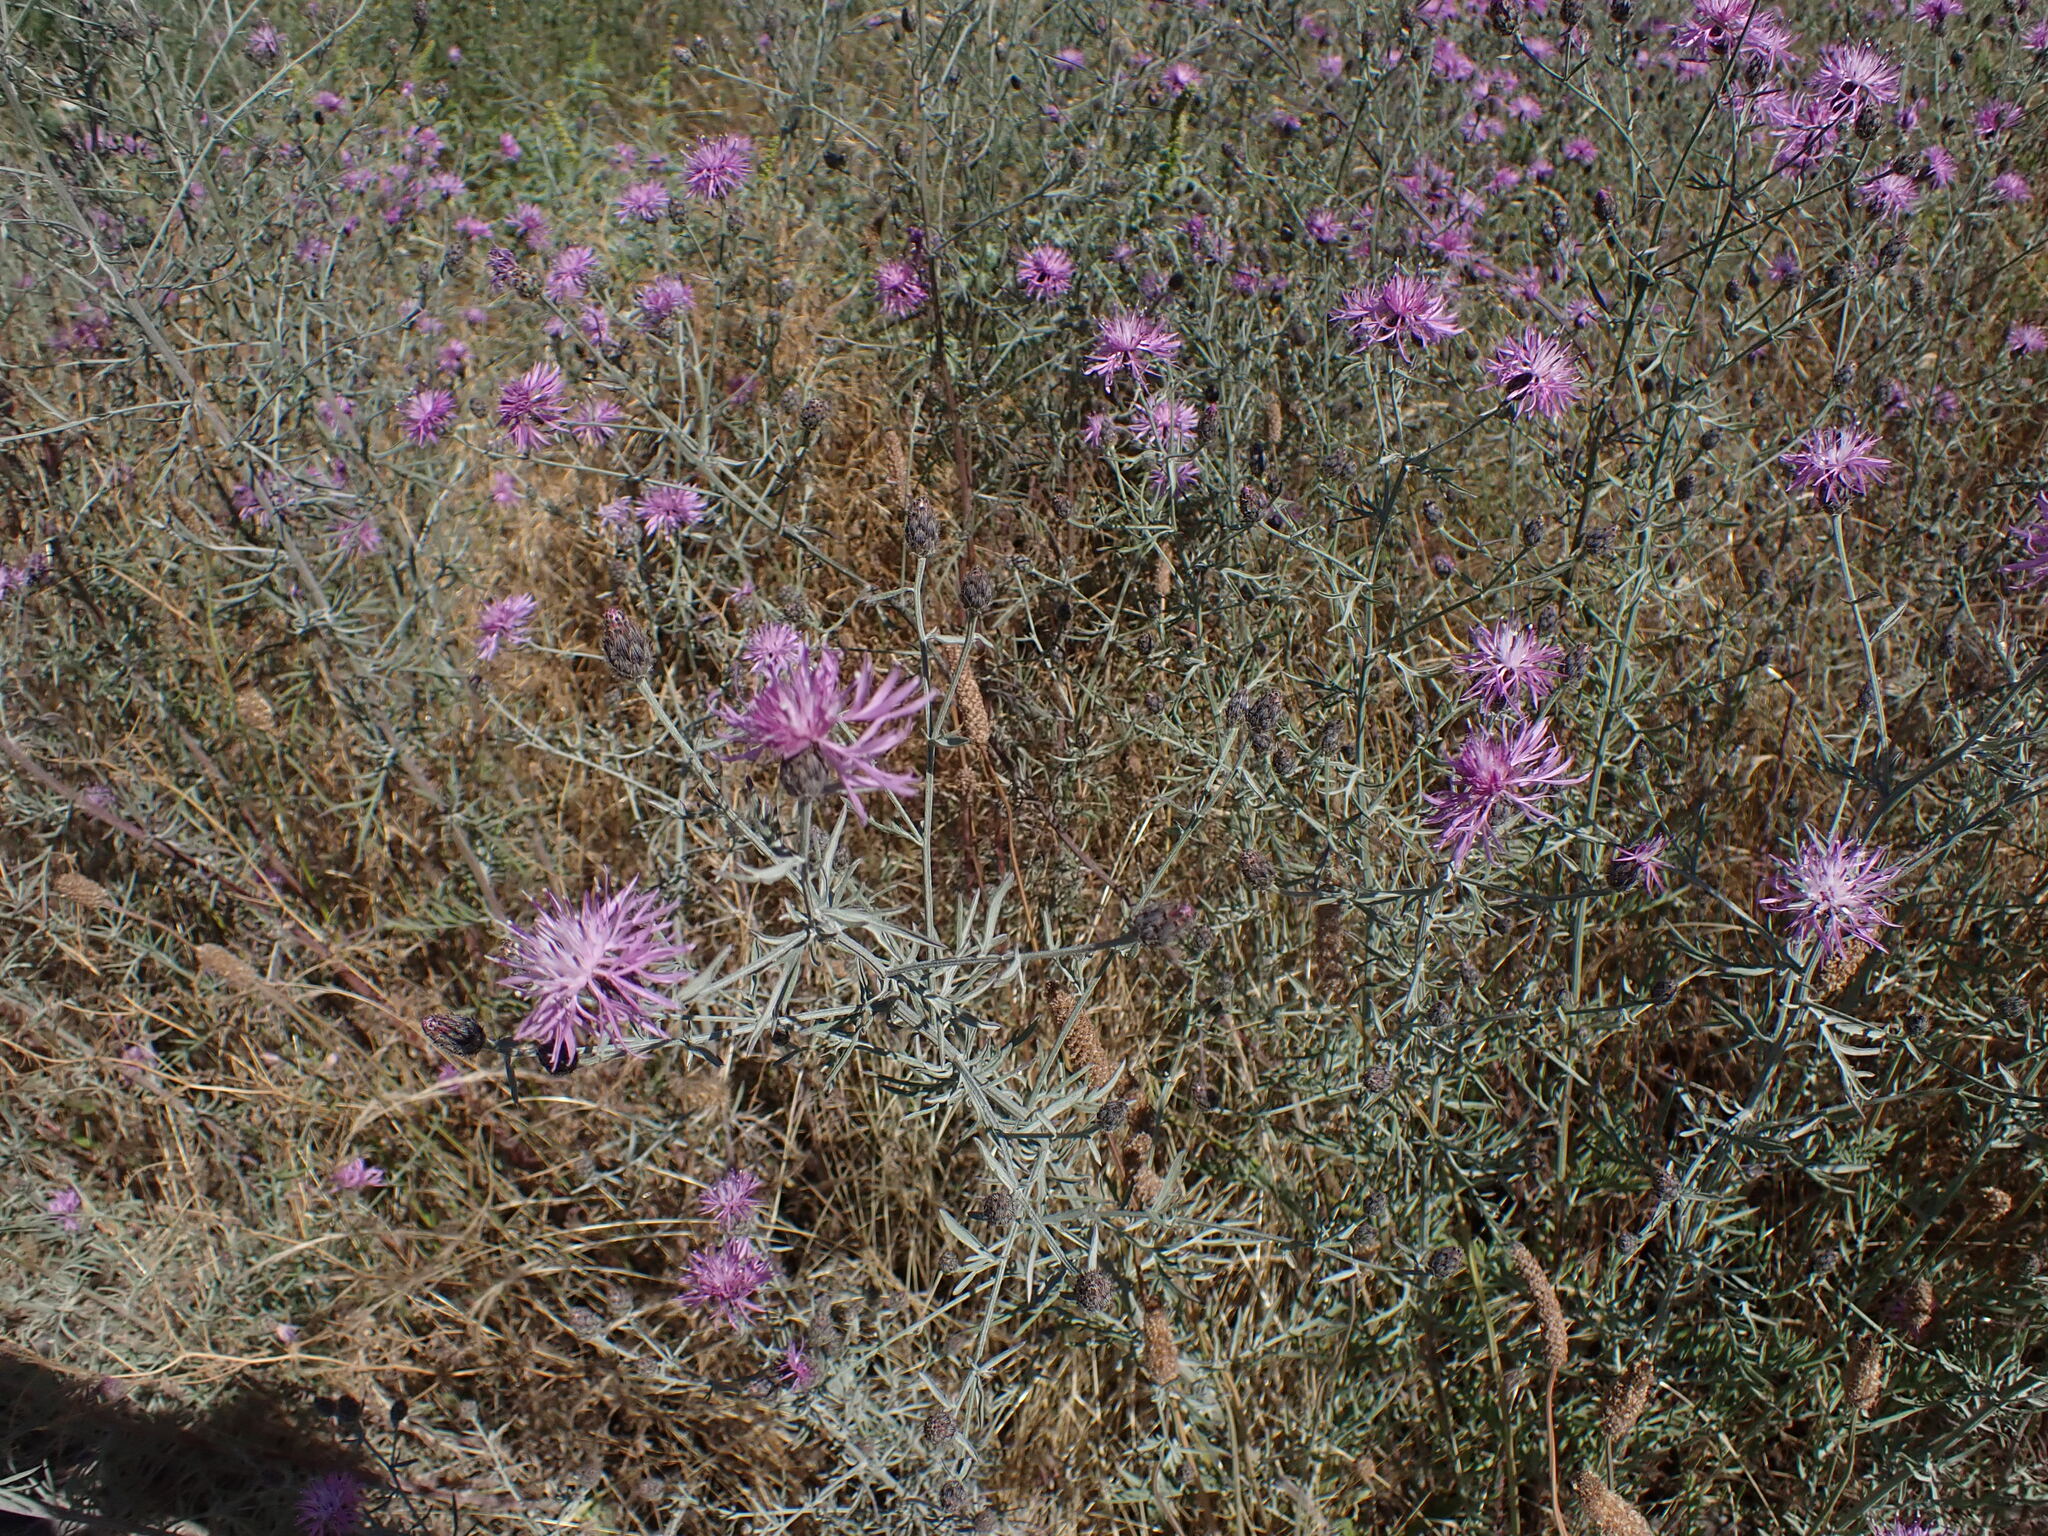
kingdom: Plantae
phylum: Tracheophyta
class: Magnoliopsida
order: Asterales
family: Asteraceae
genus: Centaurea
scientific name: Centaurea stoebe
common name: Spotted knapweed
